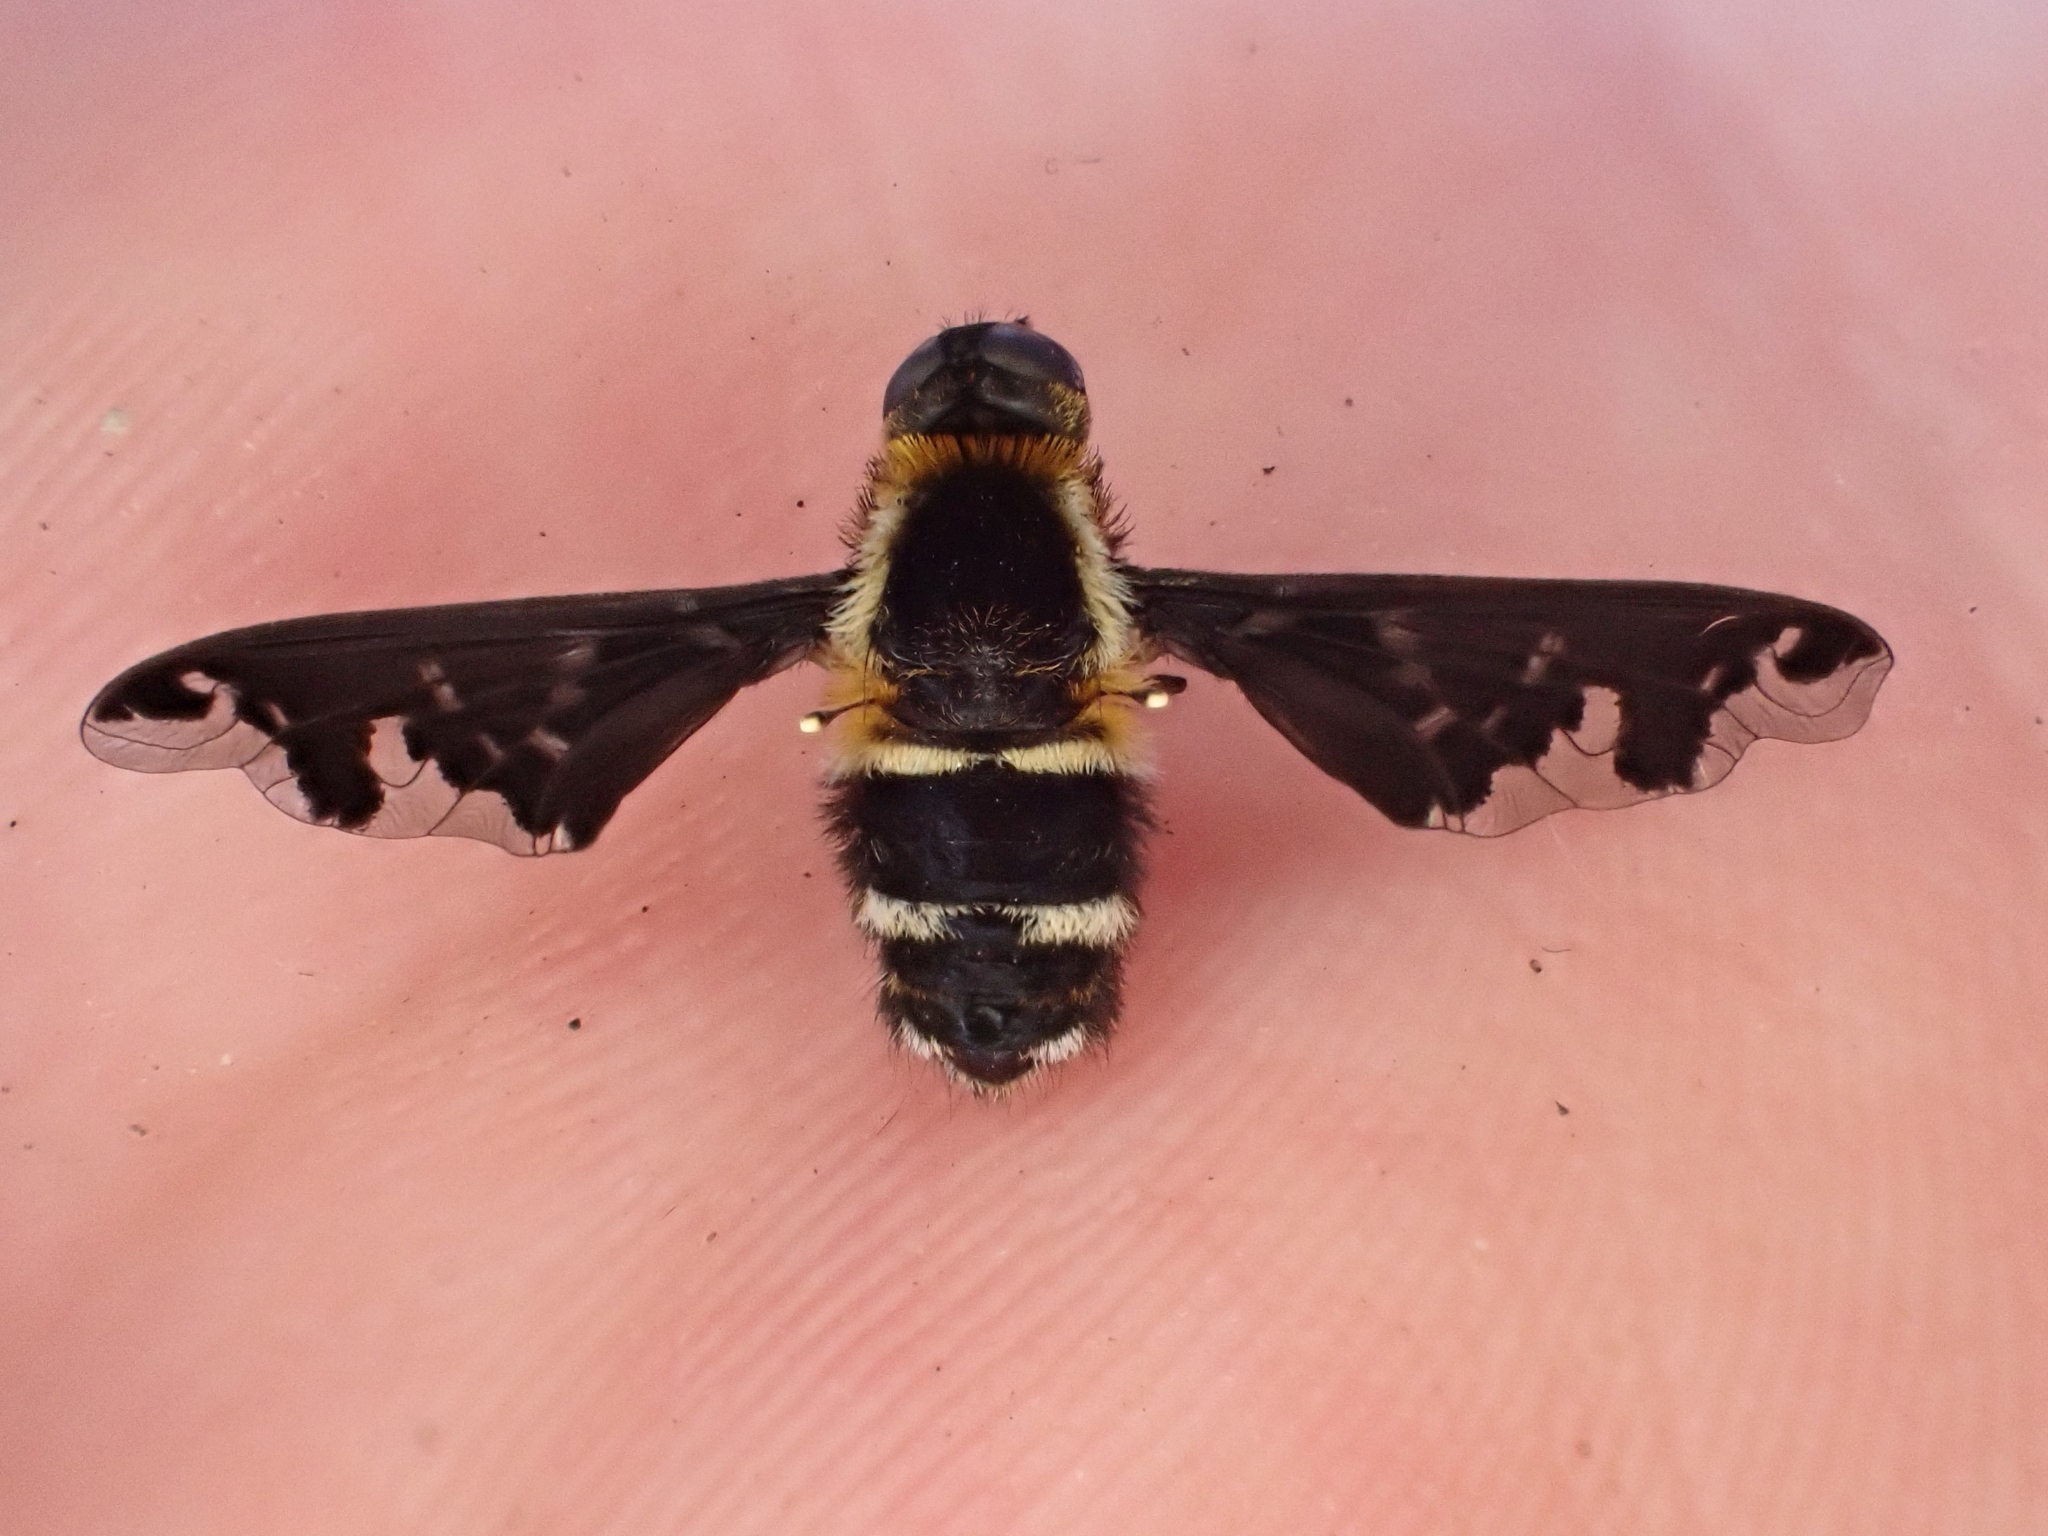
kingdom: Animalia
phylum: Arthropoda
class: Insecta
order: Diptera
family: Bombyliidae
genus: Hemipenthes
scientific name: Hemipenthes maura
